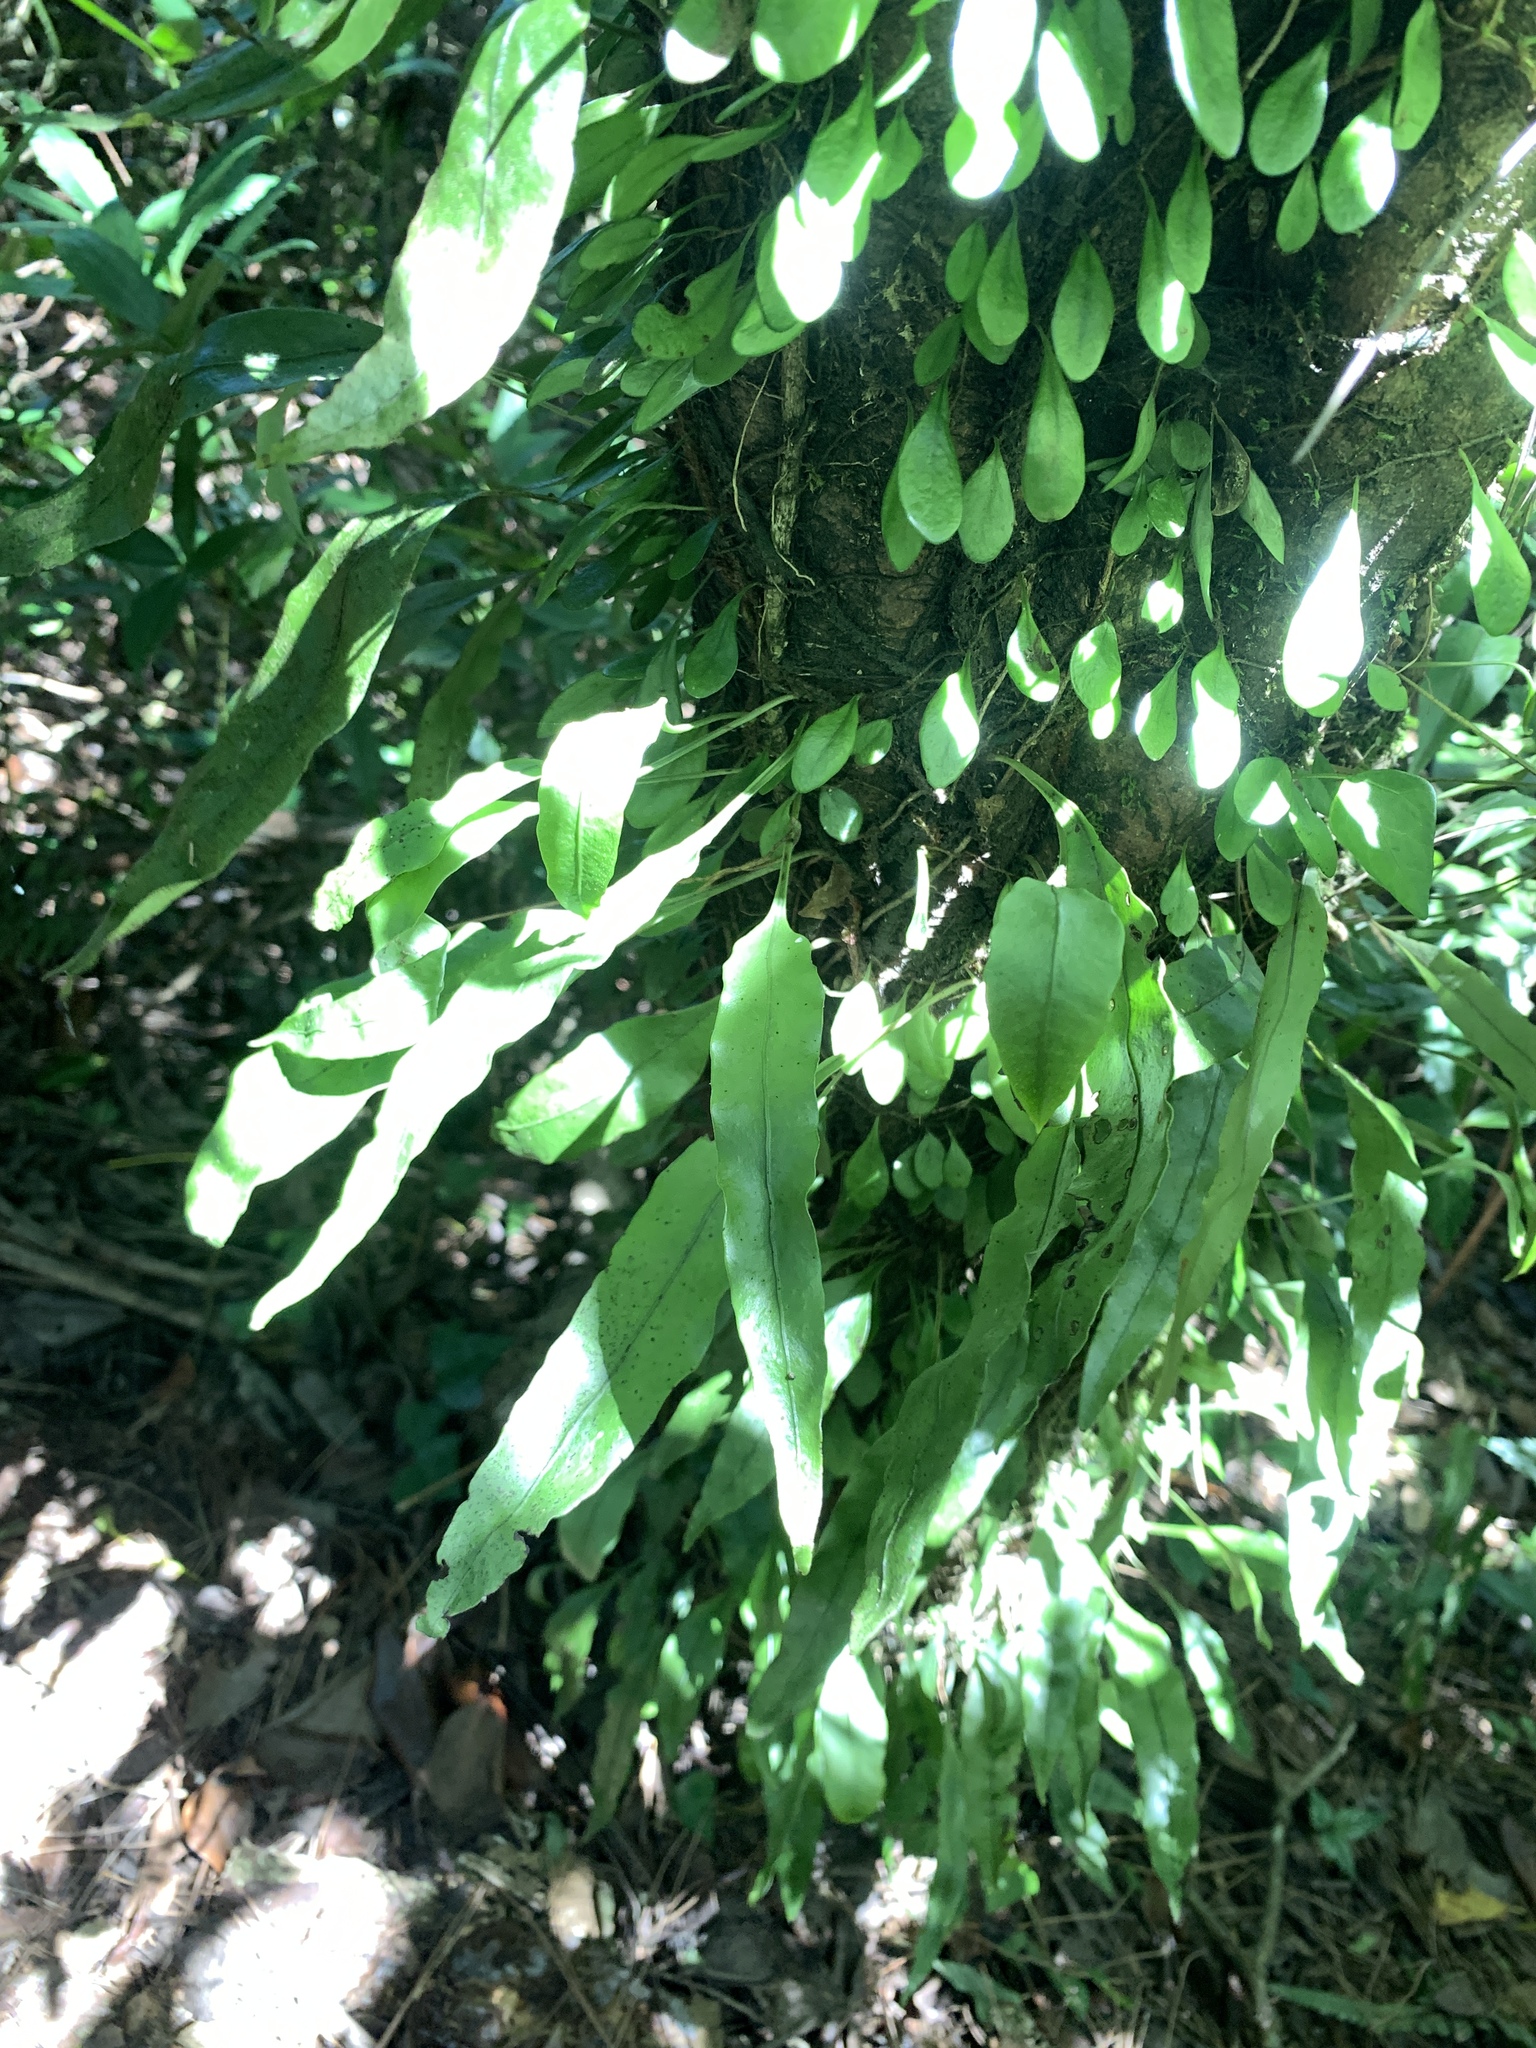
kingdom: Plantae
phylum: Tracheophyta
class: Polypodiopsida
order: Polypodiales
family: Polypodiaceae
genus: Lepisorus
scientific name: Lepisorus superficialis
